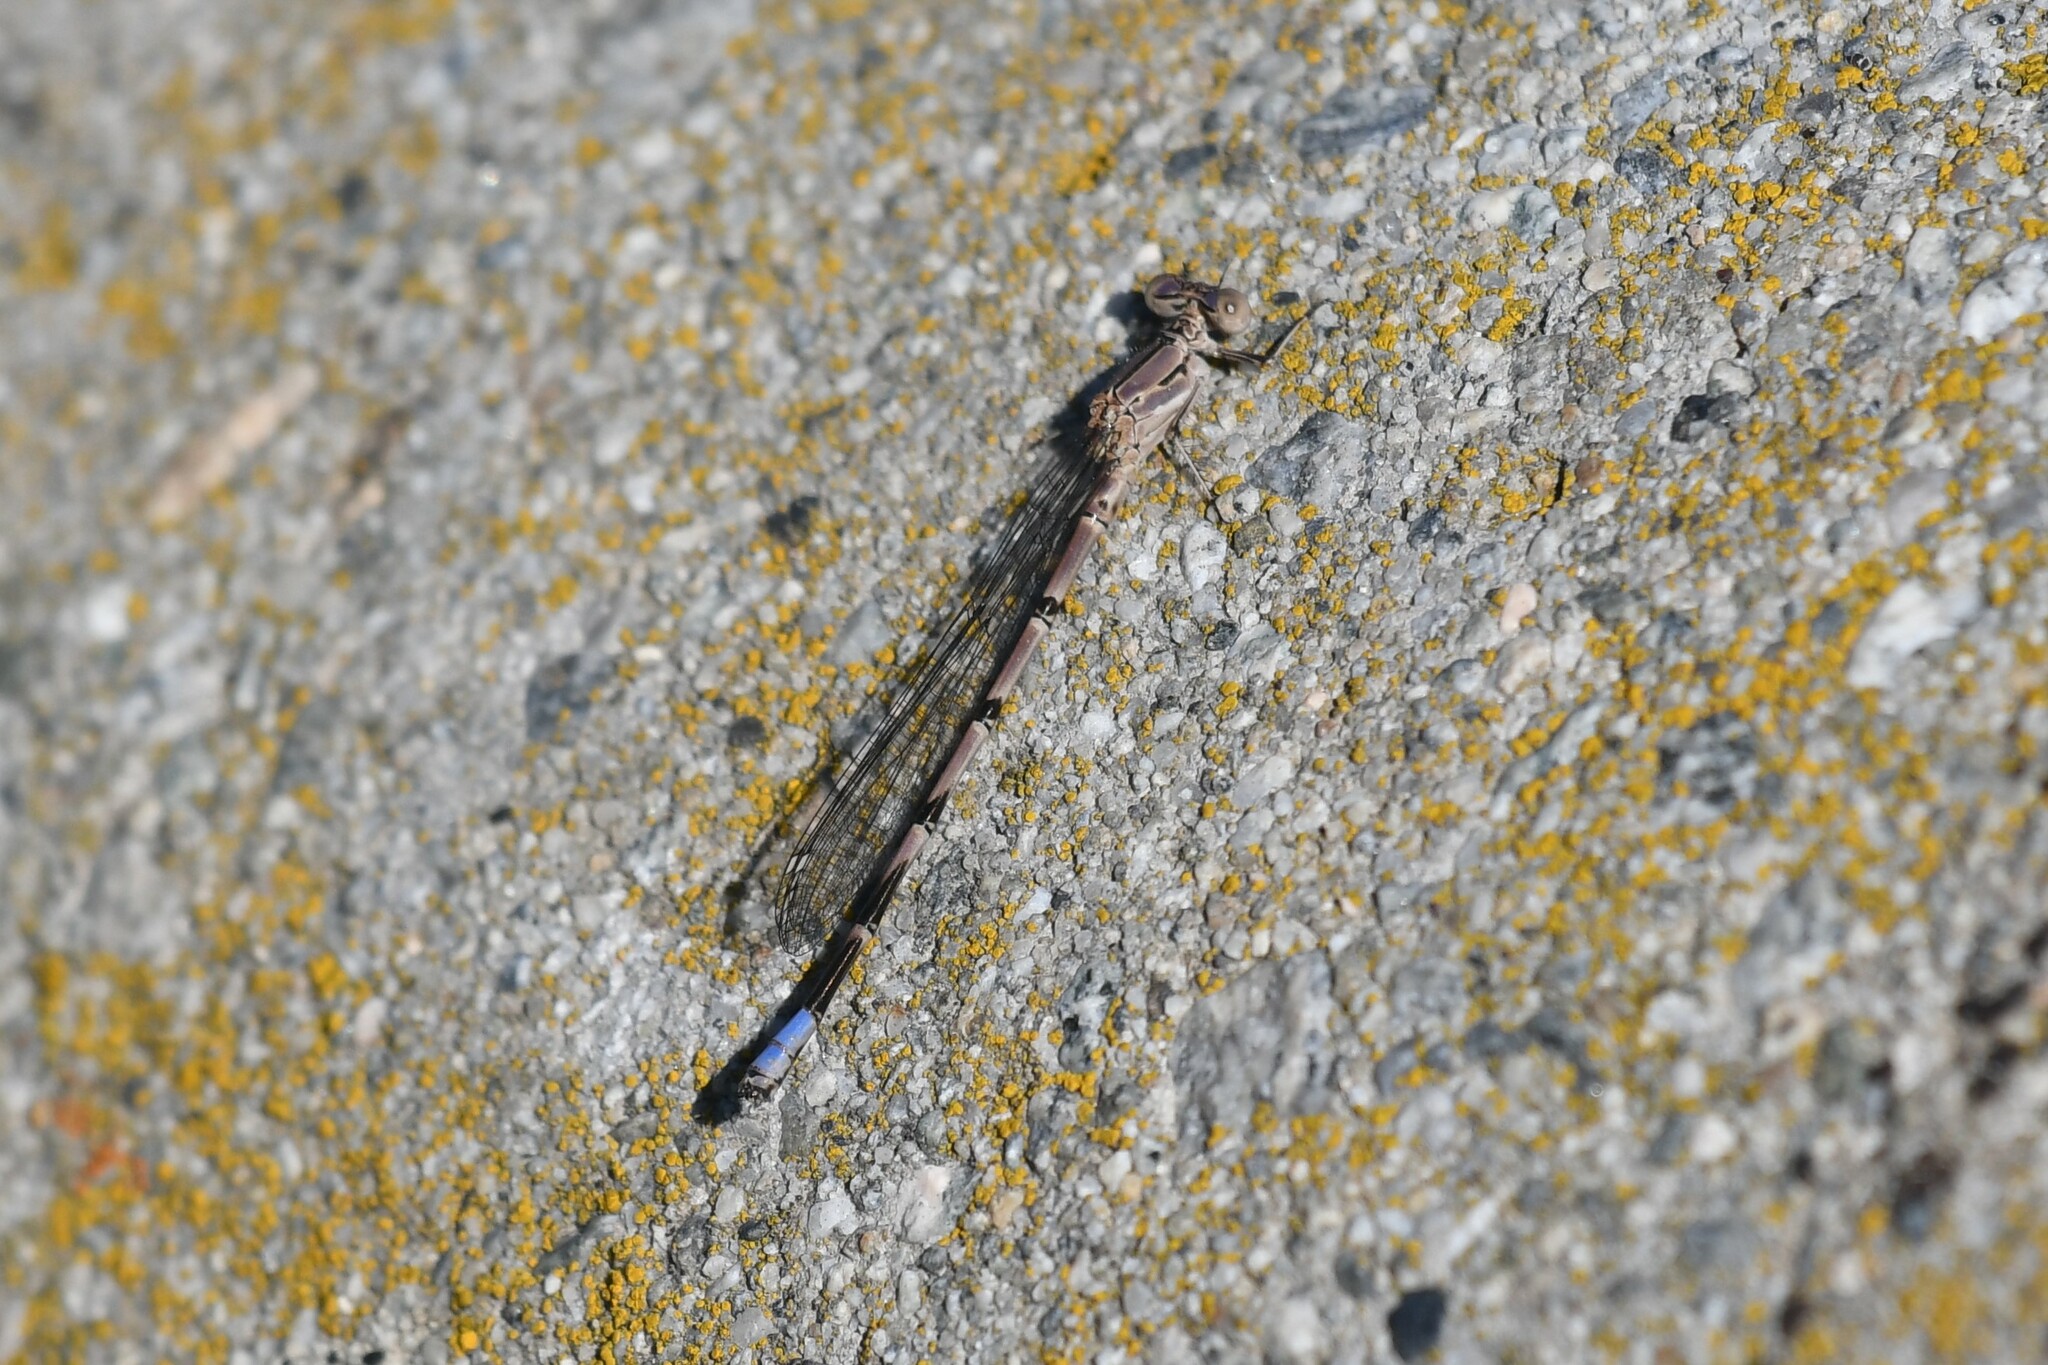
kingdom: Animalia
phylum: Arthropoda
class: Insecta
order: Odonata
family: Coenagrionidae
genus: Argia
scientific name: Argia emma
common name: Emma's dancer
